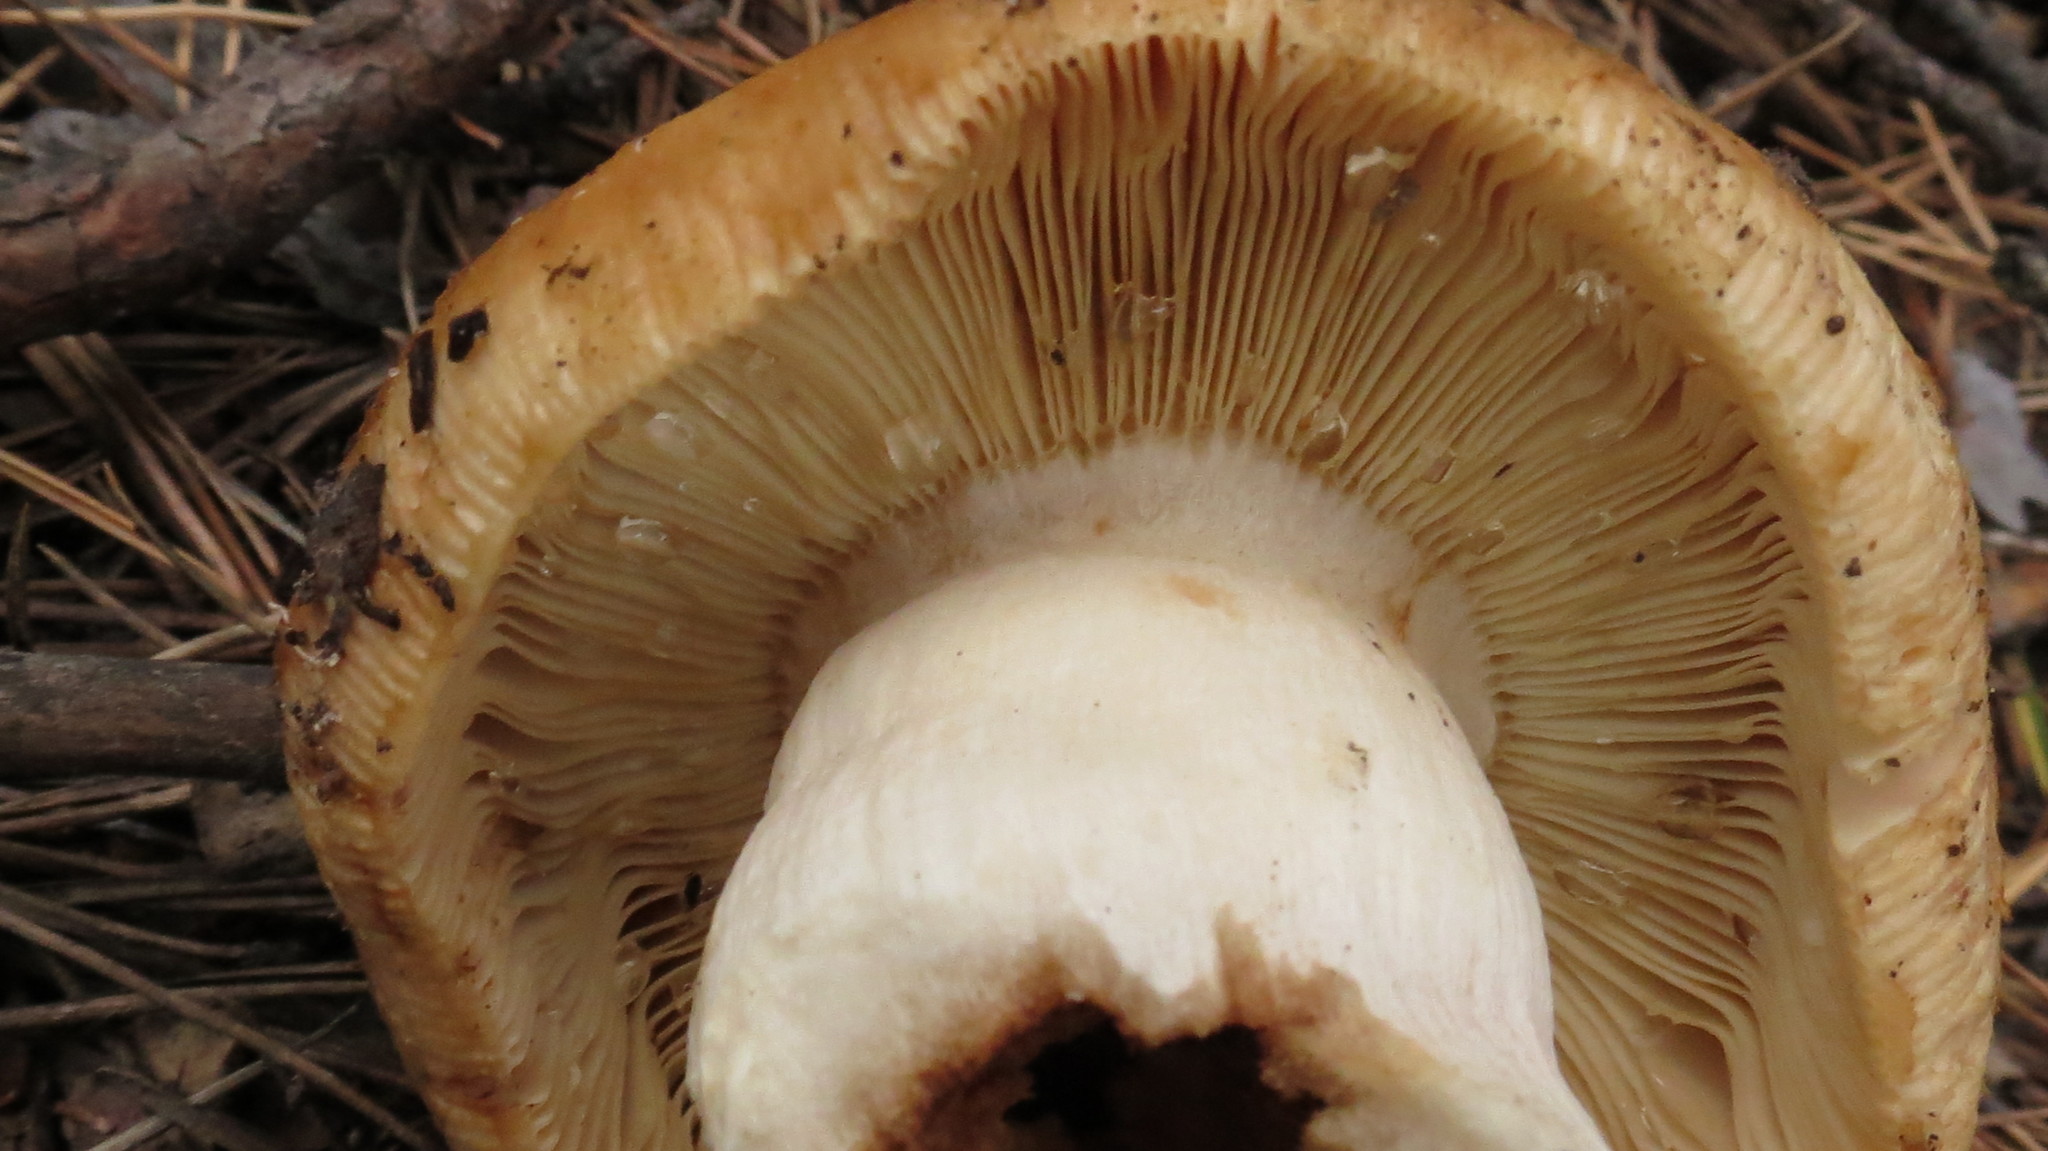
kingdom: Fungi
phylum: Basidiomycota
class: Agaricomycetes
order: Russulales
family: Russulaceae
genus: Russula
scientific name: Russula foetens
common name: Foetid russula
